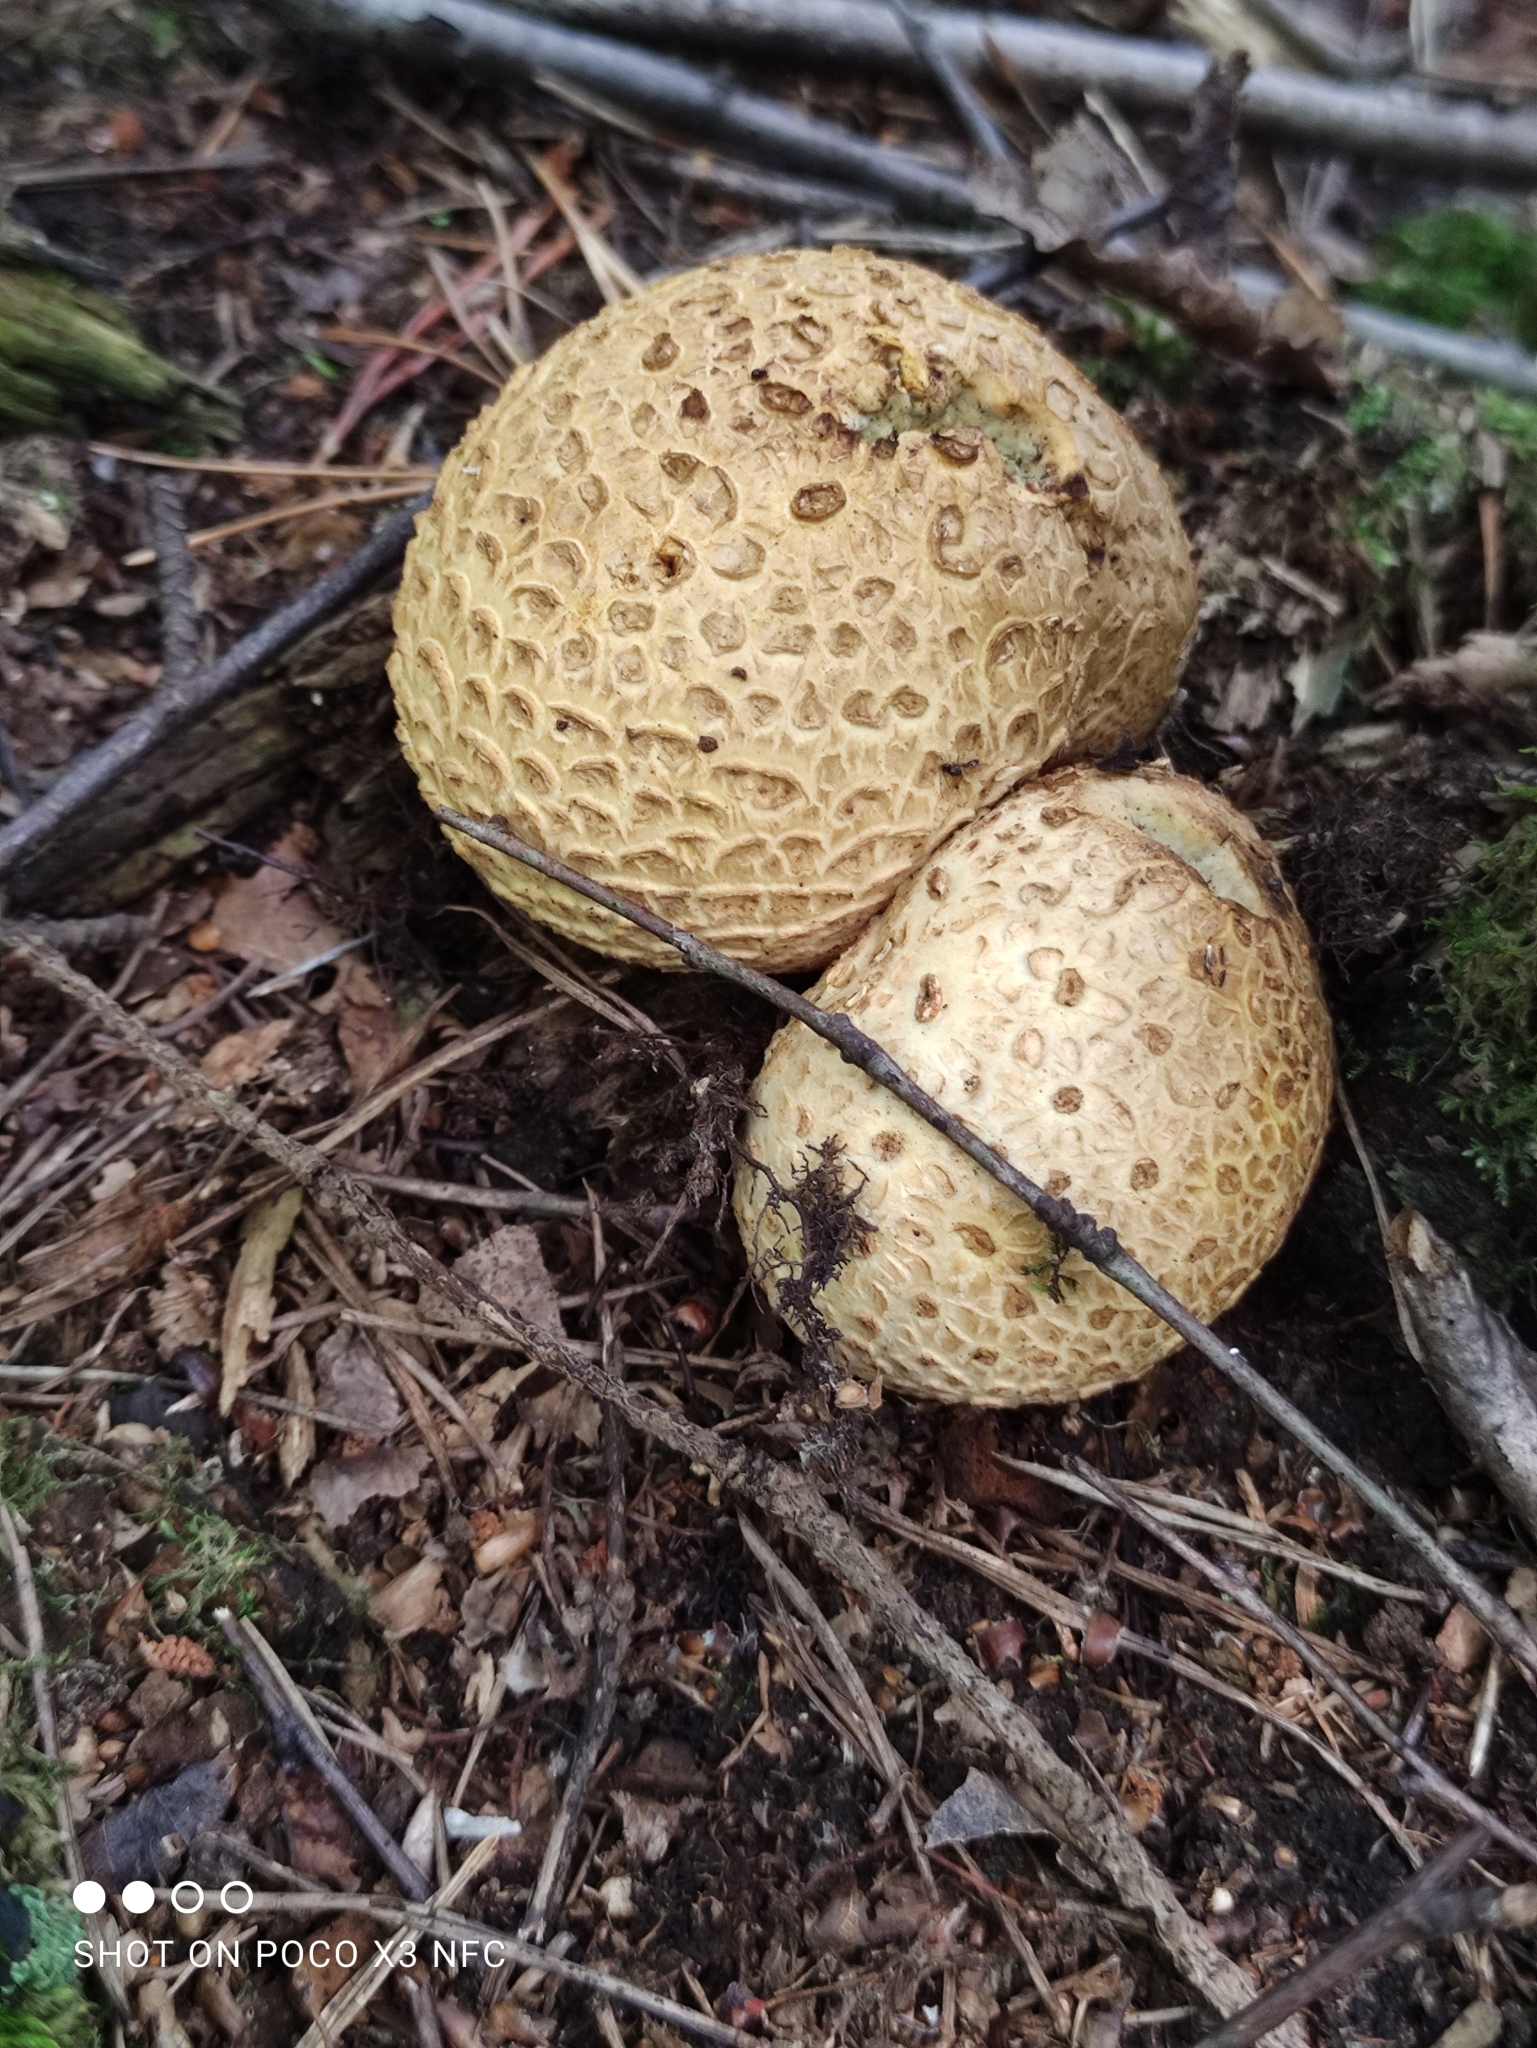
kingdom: Fungi
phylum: Basidiomycota
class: Agaricomycetes
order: Boletales
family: Sclerodermataceae
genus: Scleroderma
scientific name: Scleroderma citrinum
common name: Common earthball
